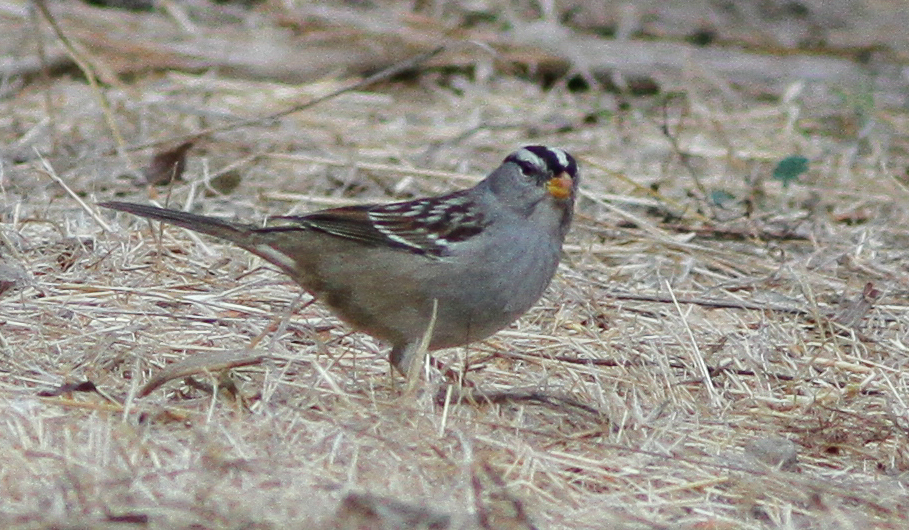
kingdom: Animalia
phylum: Chordata
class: Aves
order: Passeriformes
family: Passerellidae
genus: Zonotrichia
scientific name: Zonotrichia leucophrys
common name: White-crowned sparrow
